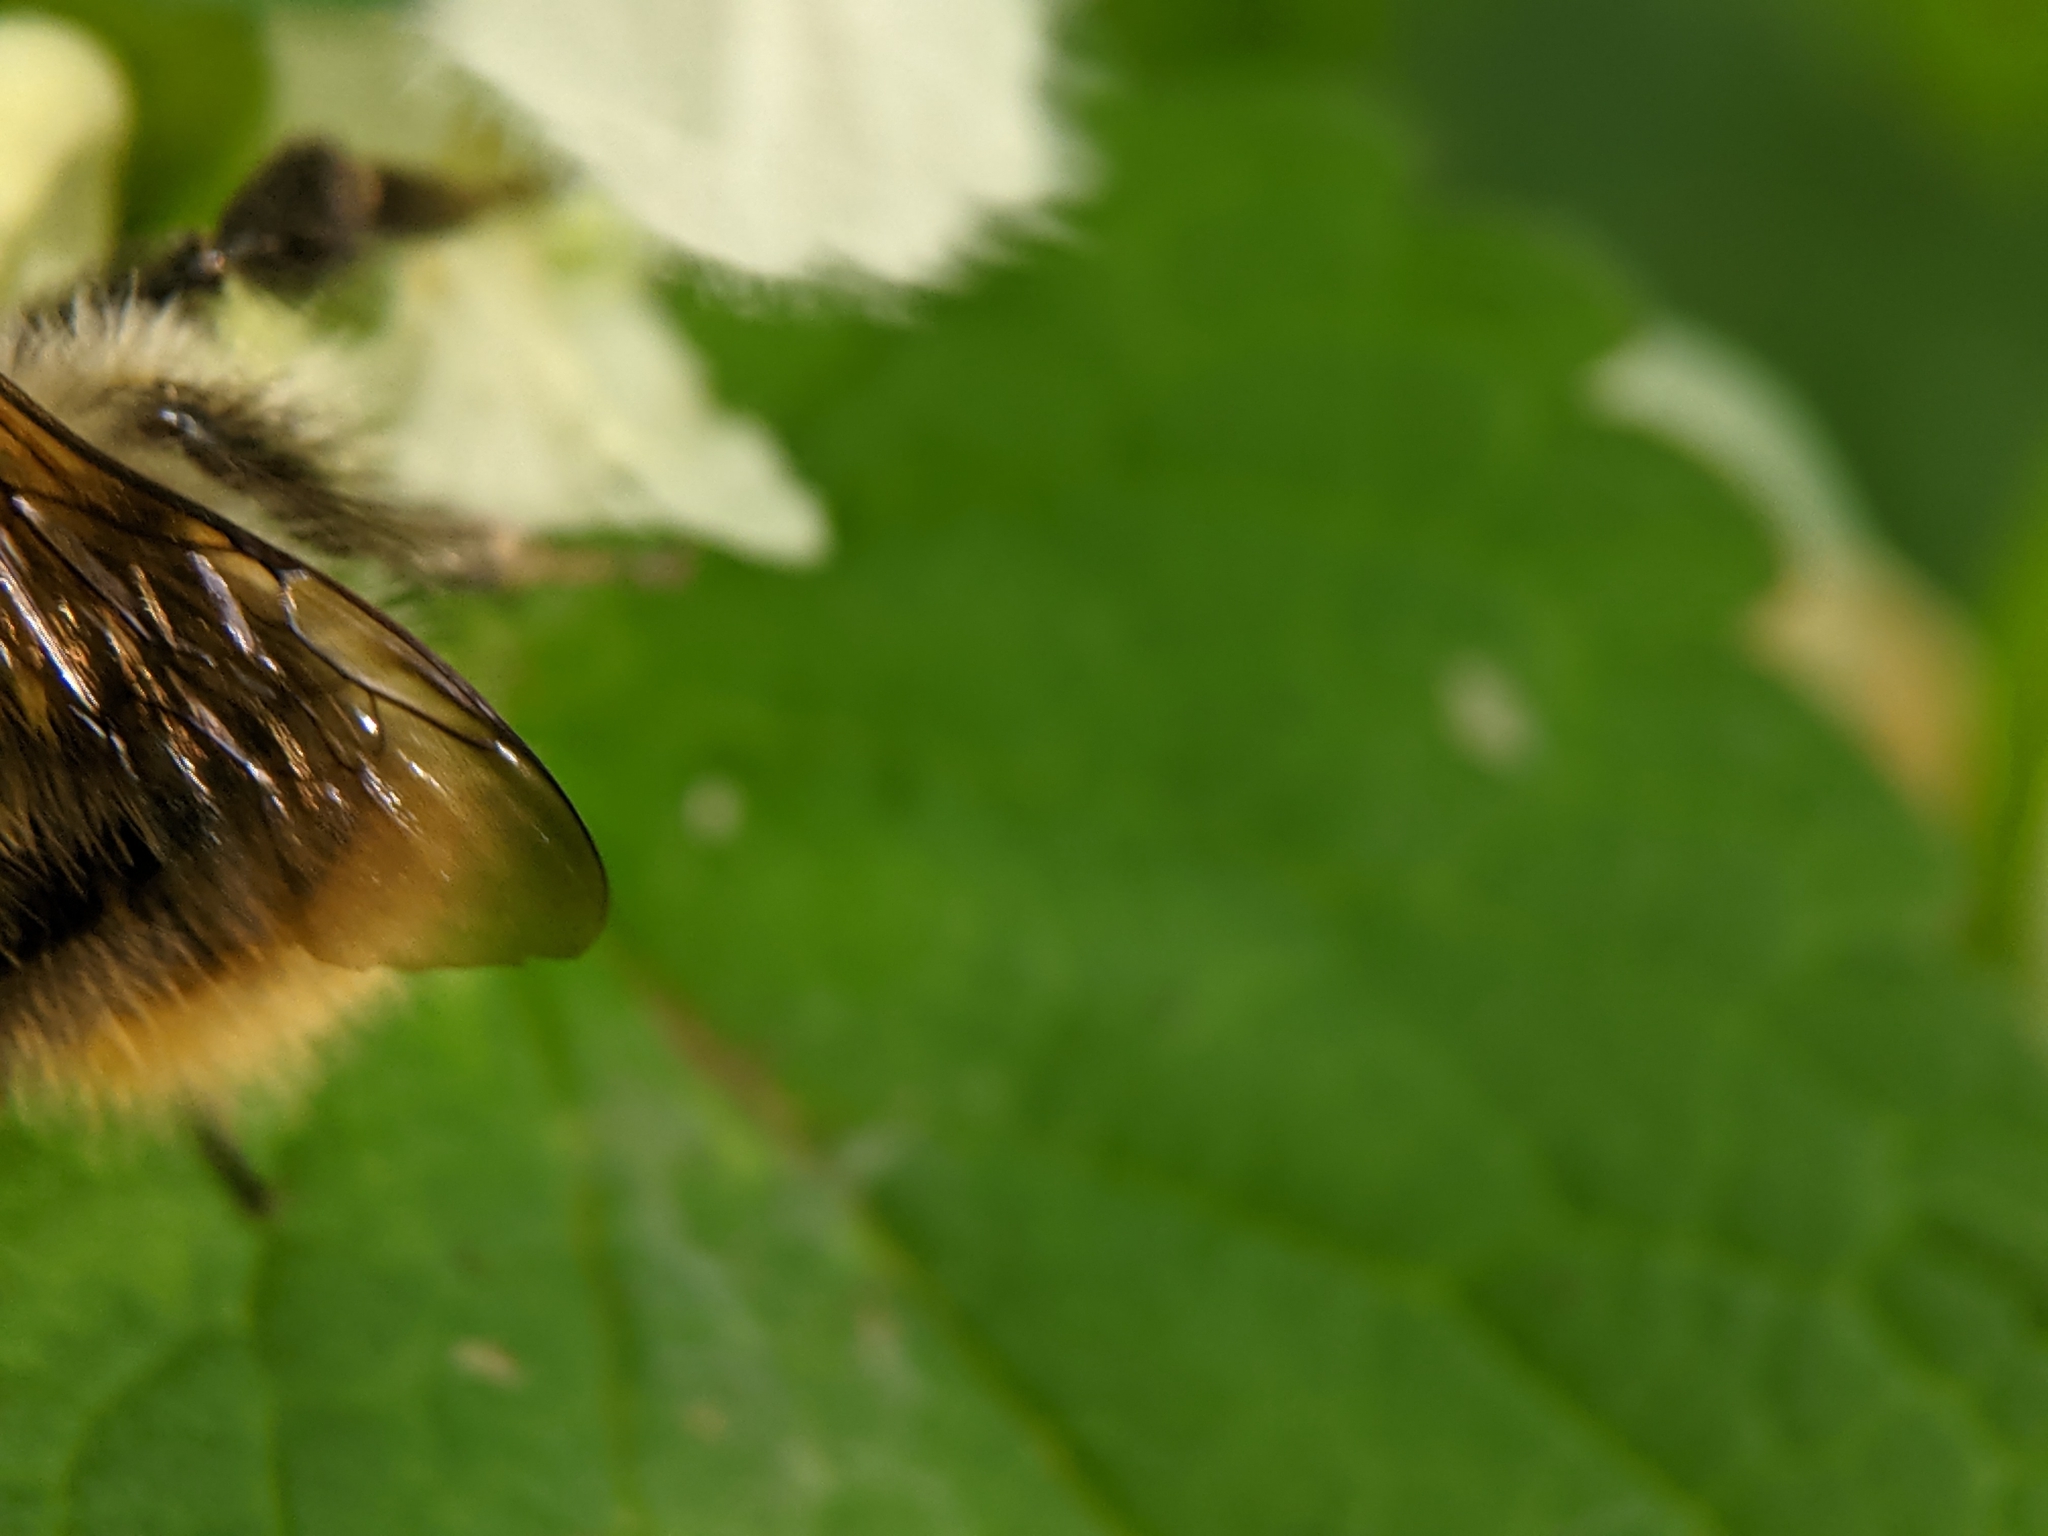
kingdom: Animalia
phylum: Arthropoda
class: Insecta
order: Hymenoptera
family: Apidae
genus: Bombus
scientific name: Bombus pascuorum
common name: Common carder bee
